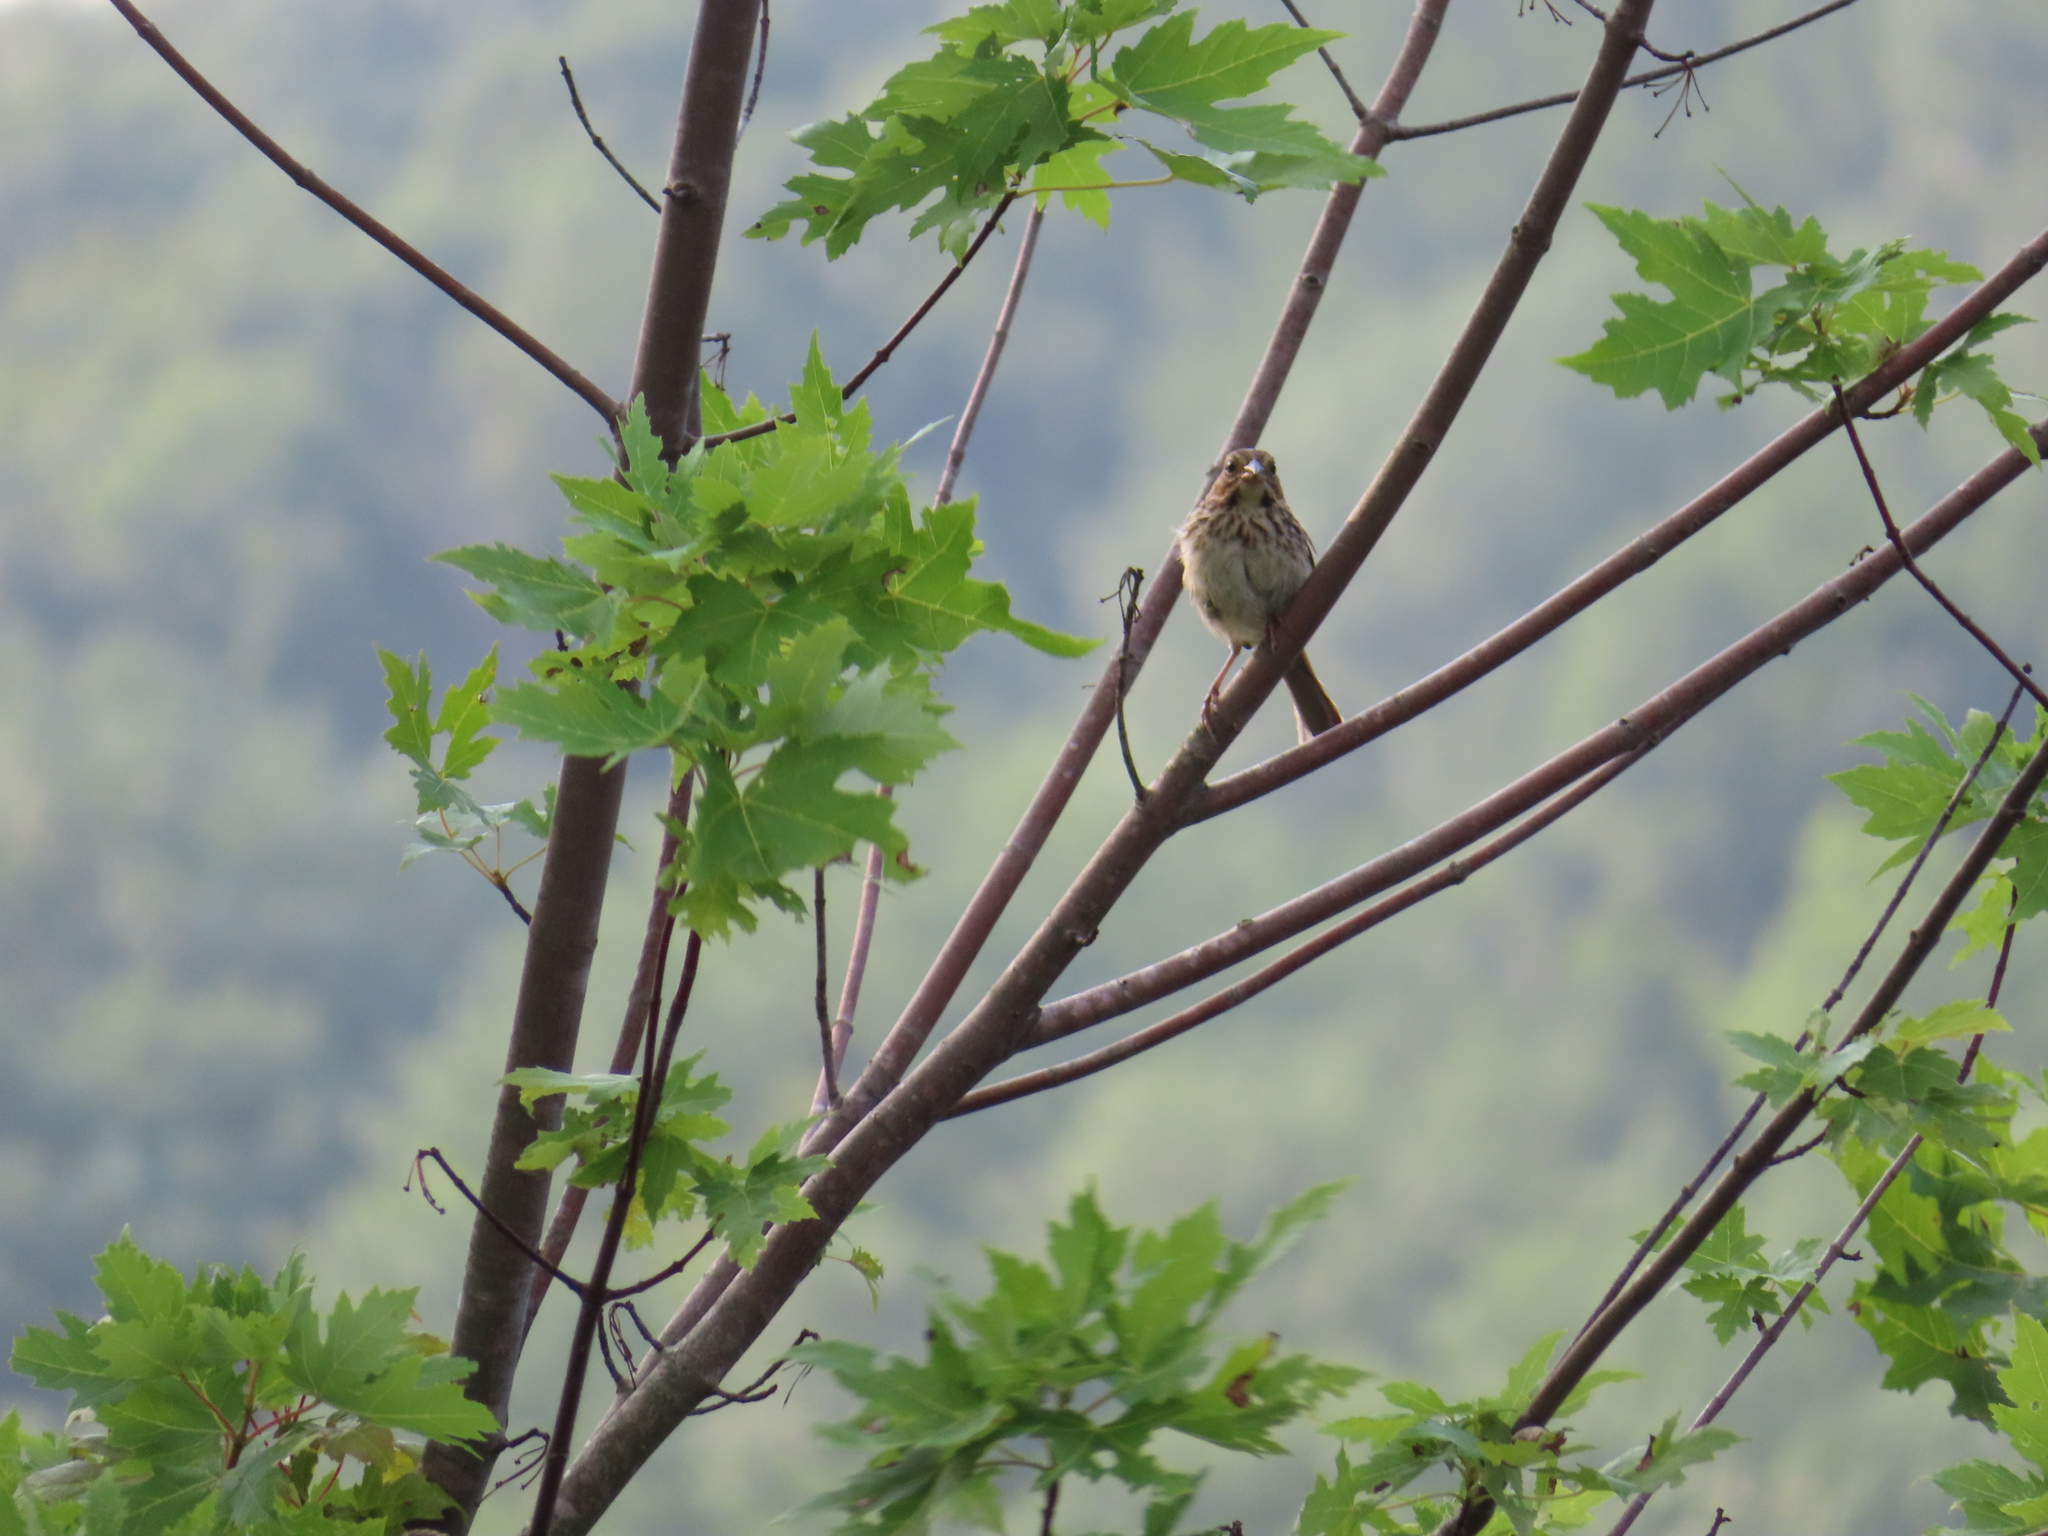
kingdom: Animalia
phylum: Chordata
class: Aves
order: Passeriformes
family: Passerellidae
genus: Melospiza
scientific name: Melospiza melodia
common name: Song sparrow
